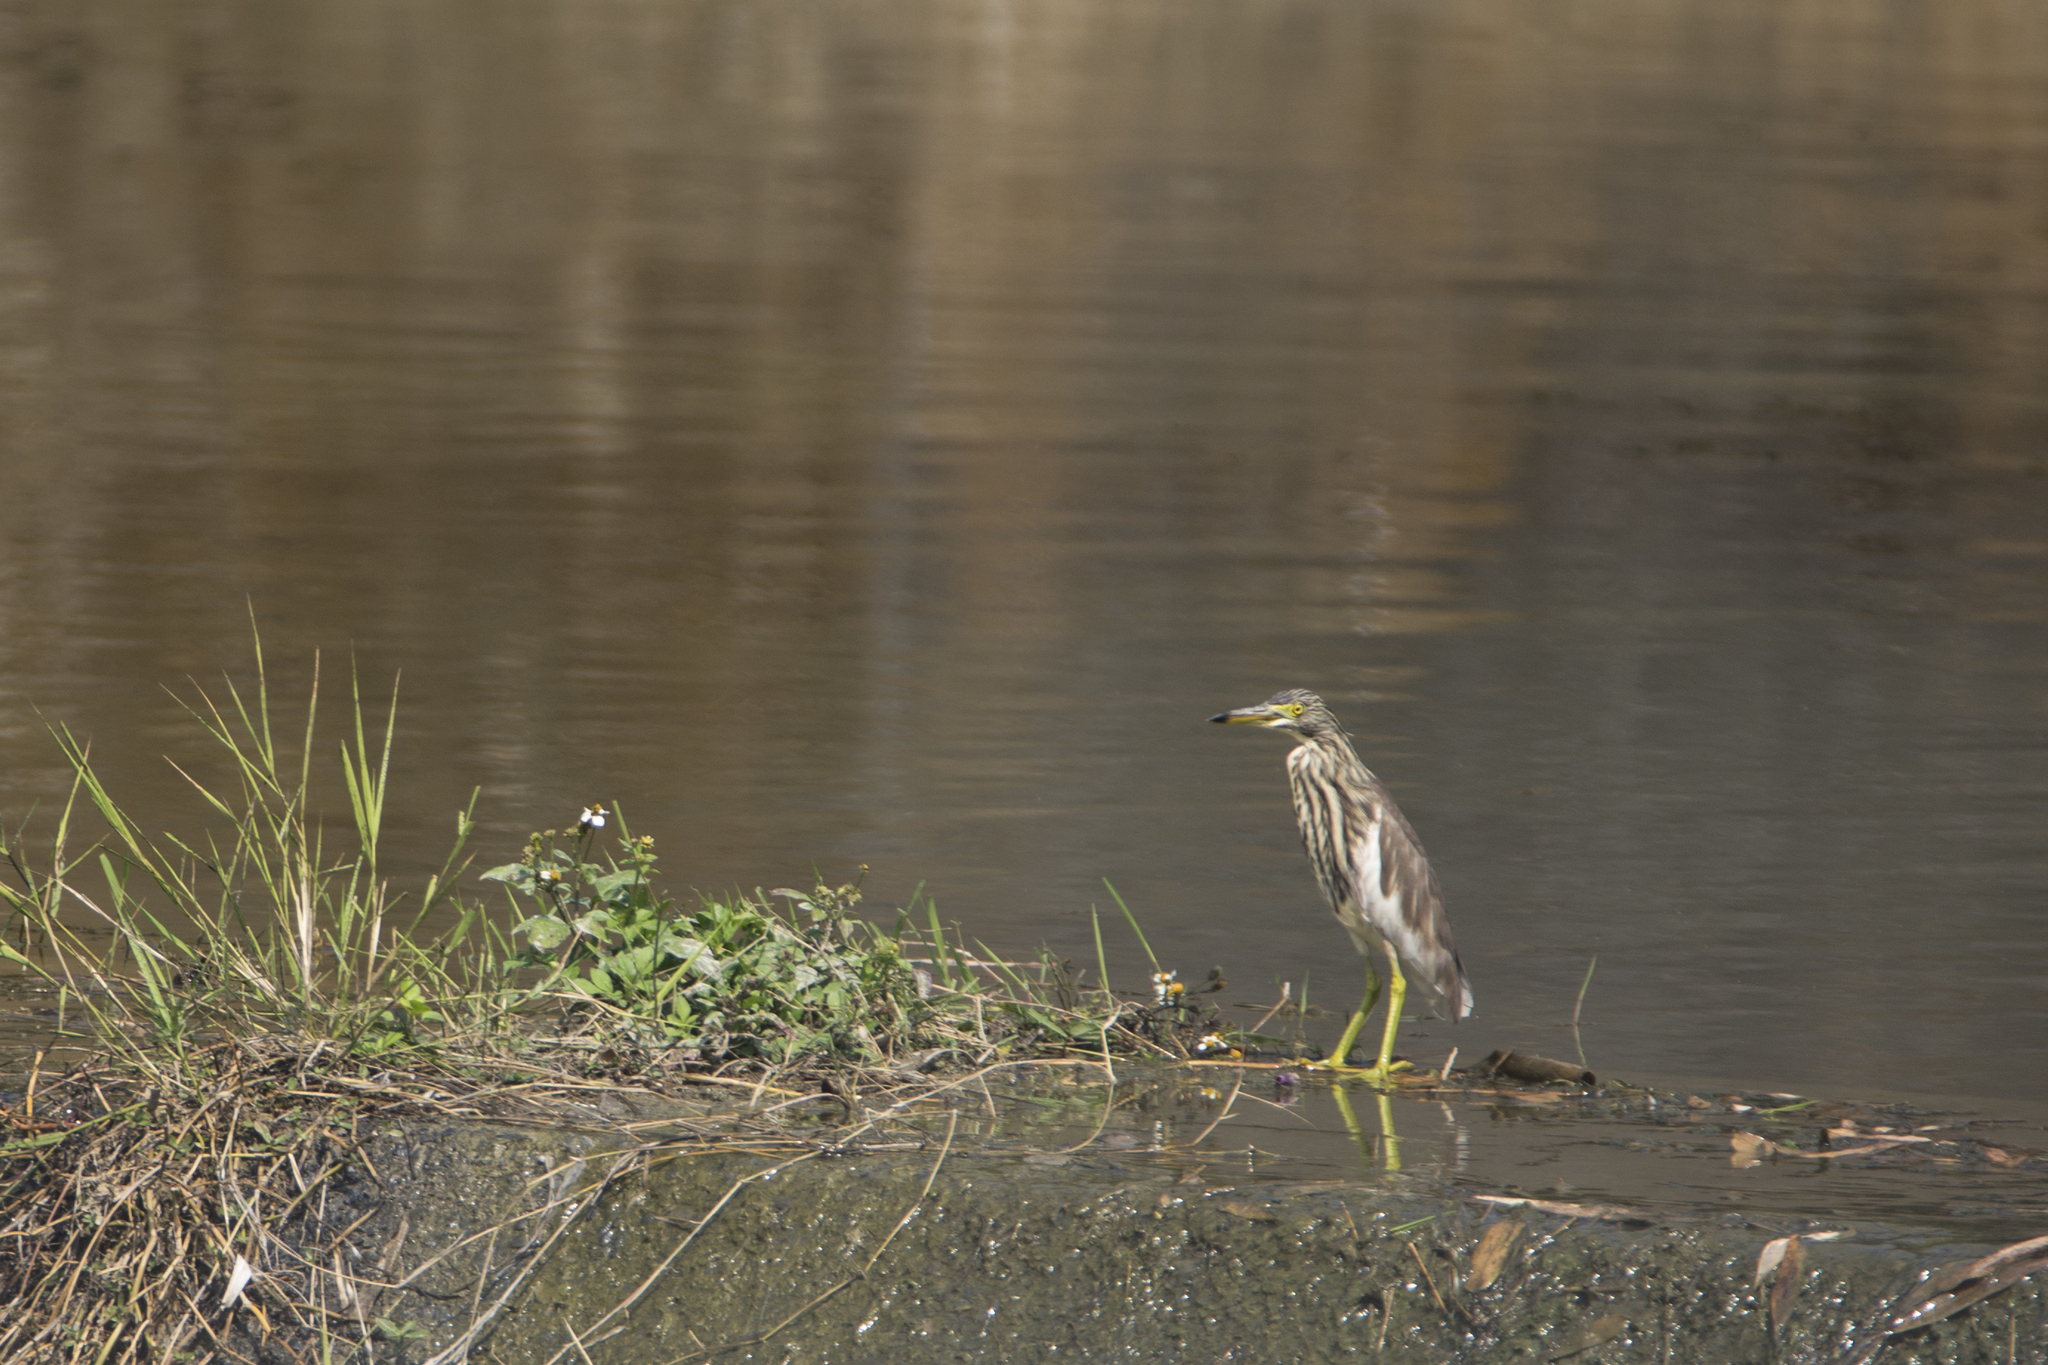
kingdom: Animalia
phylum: Chordata
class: Aves
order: Pelecaniformes
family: Ardeidae
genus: Ardeola
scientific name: Ardeola bacchus
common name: Chinese pond heron
